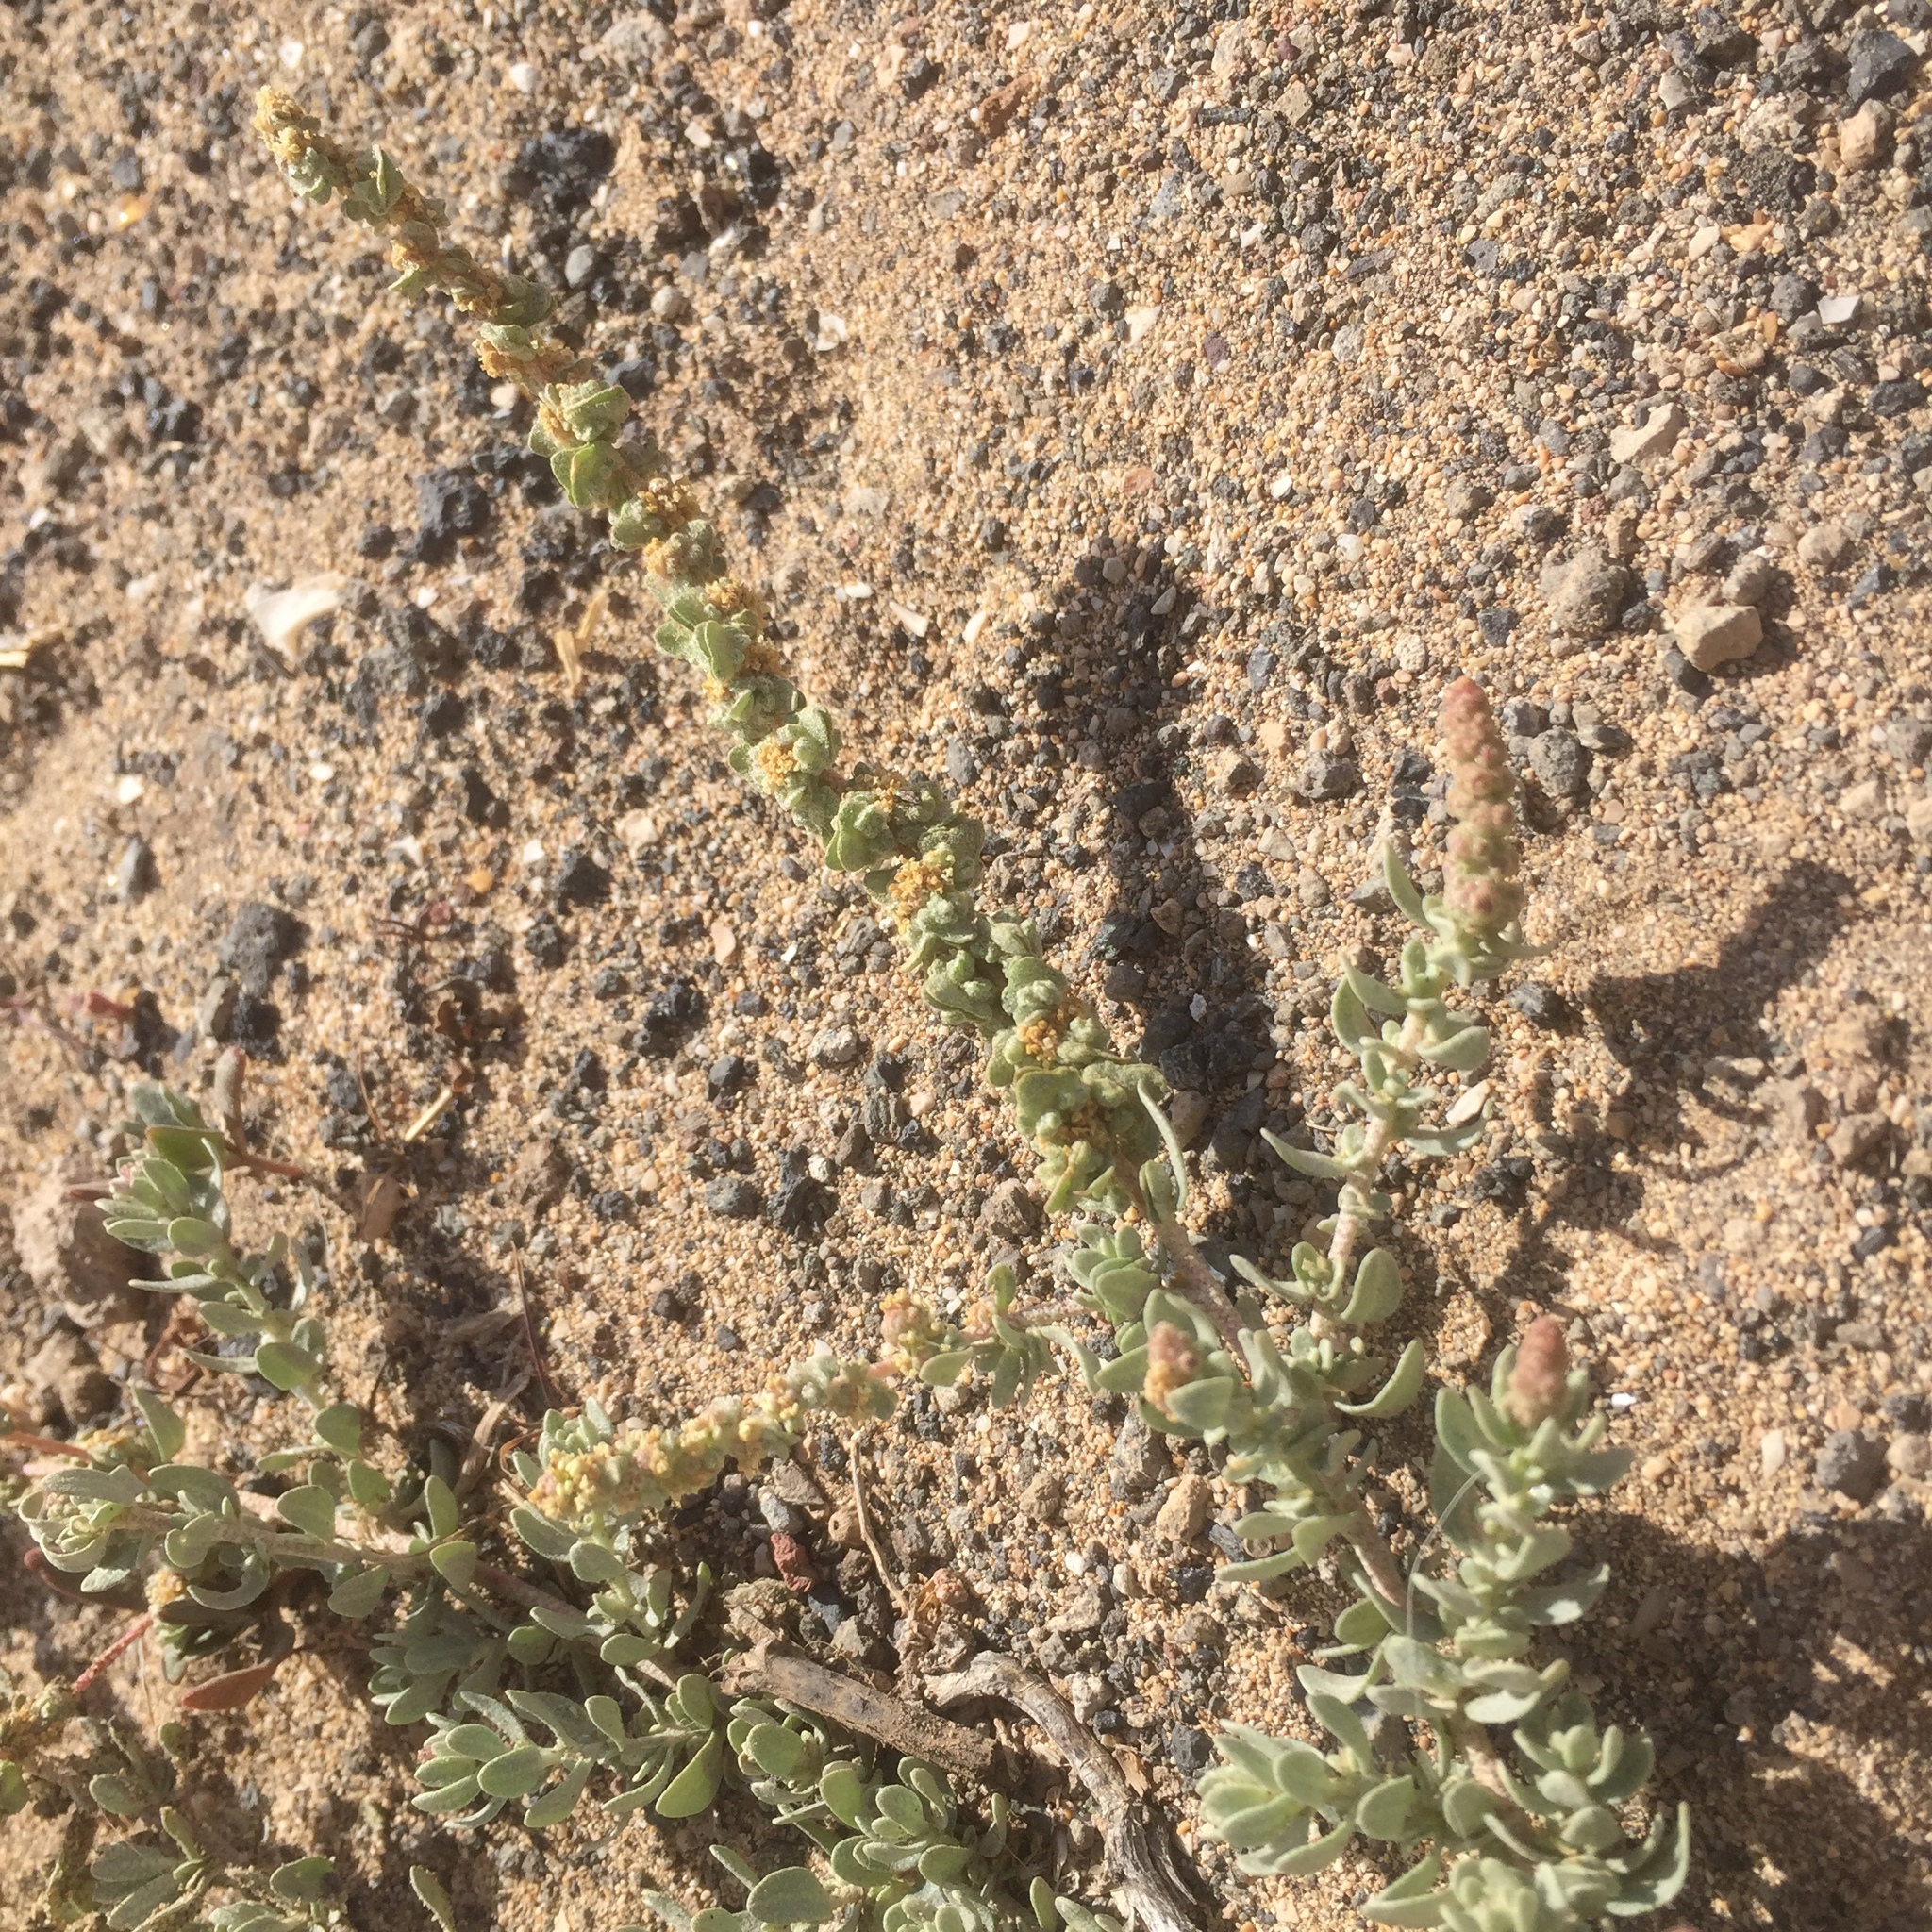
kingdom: Plantae
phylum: Tracheophyta
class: Magnoliopsida
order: Caryophyllales
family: Amaranthaceae
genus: Atriplex
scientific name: Atriplex glauca
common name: Waxy saltbush
